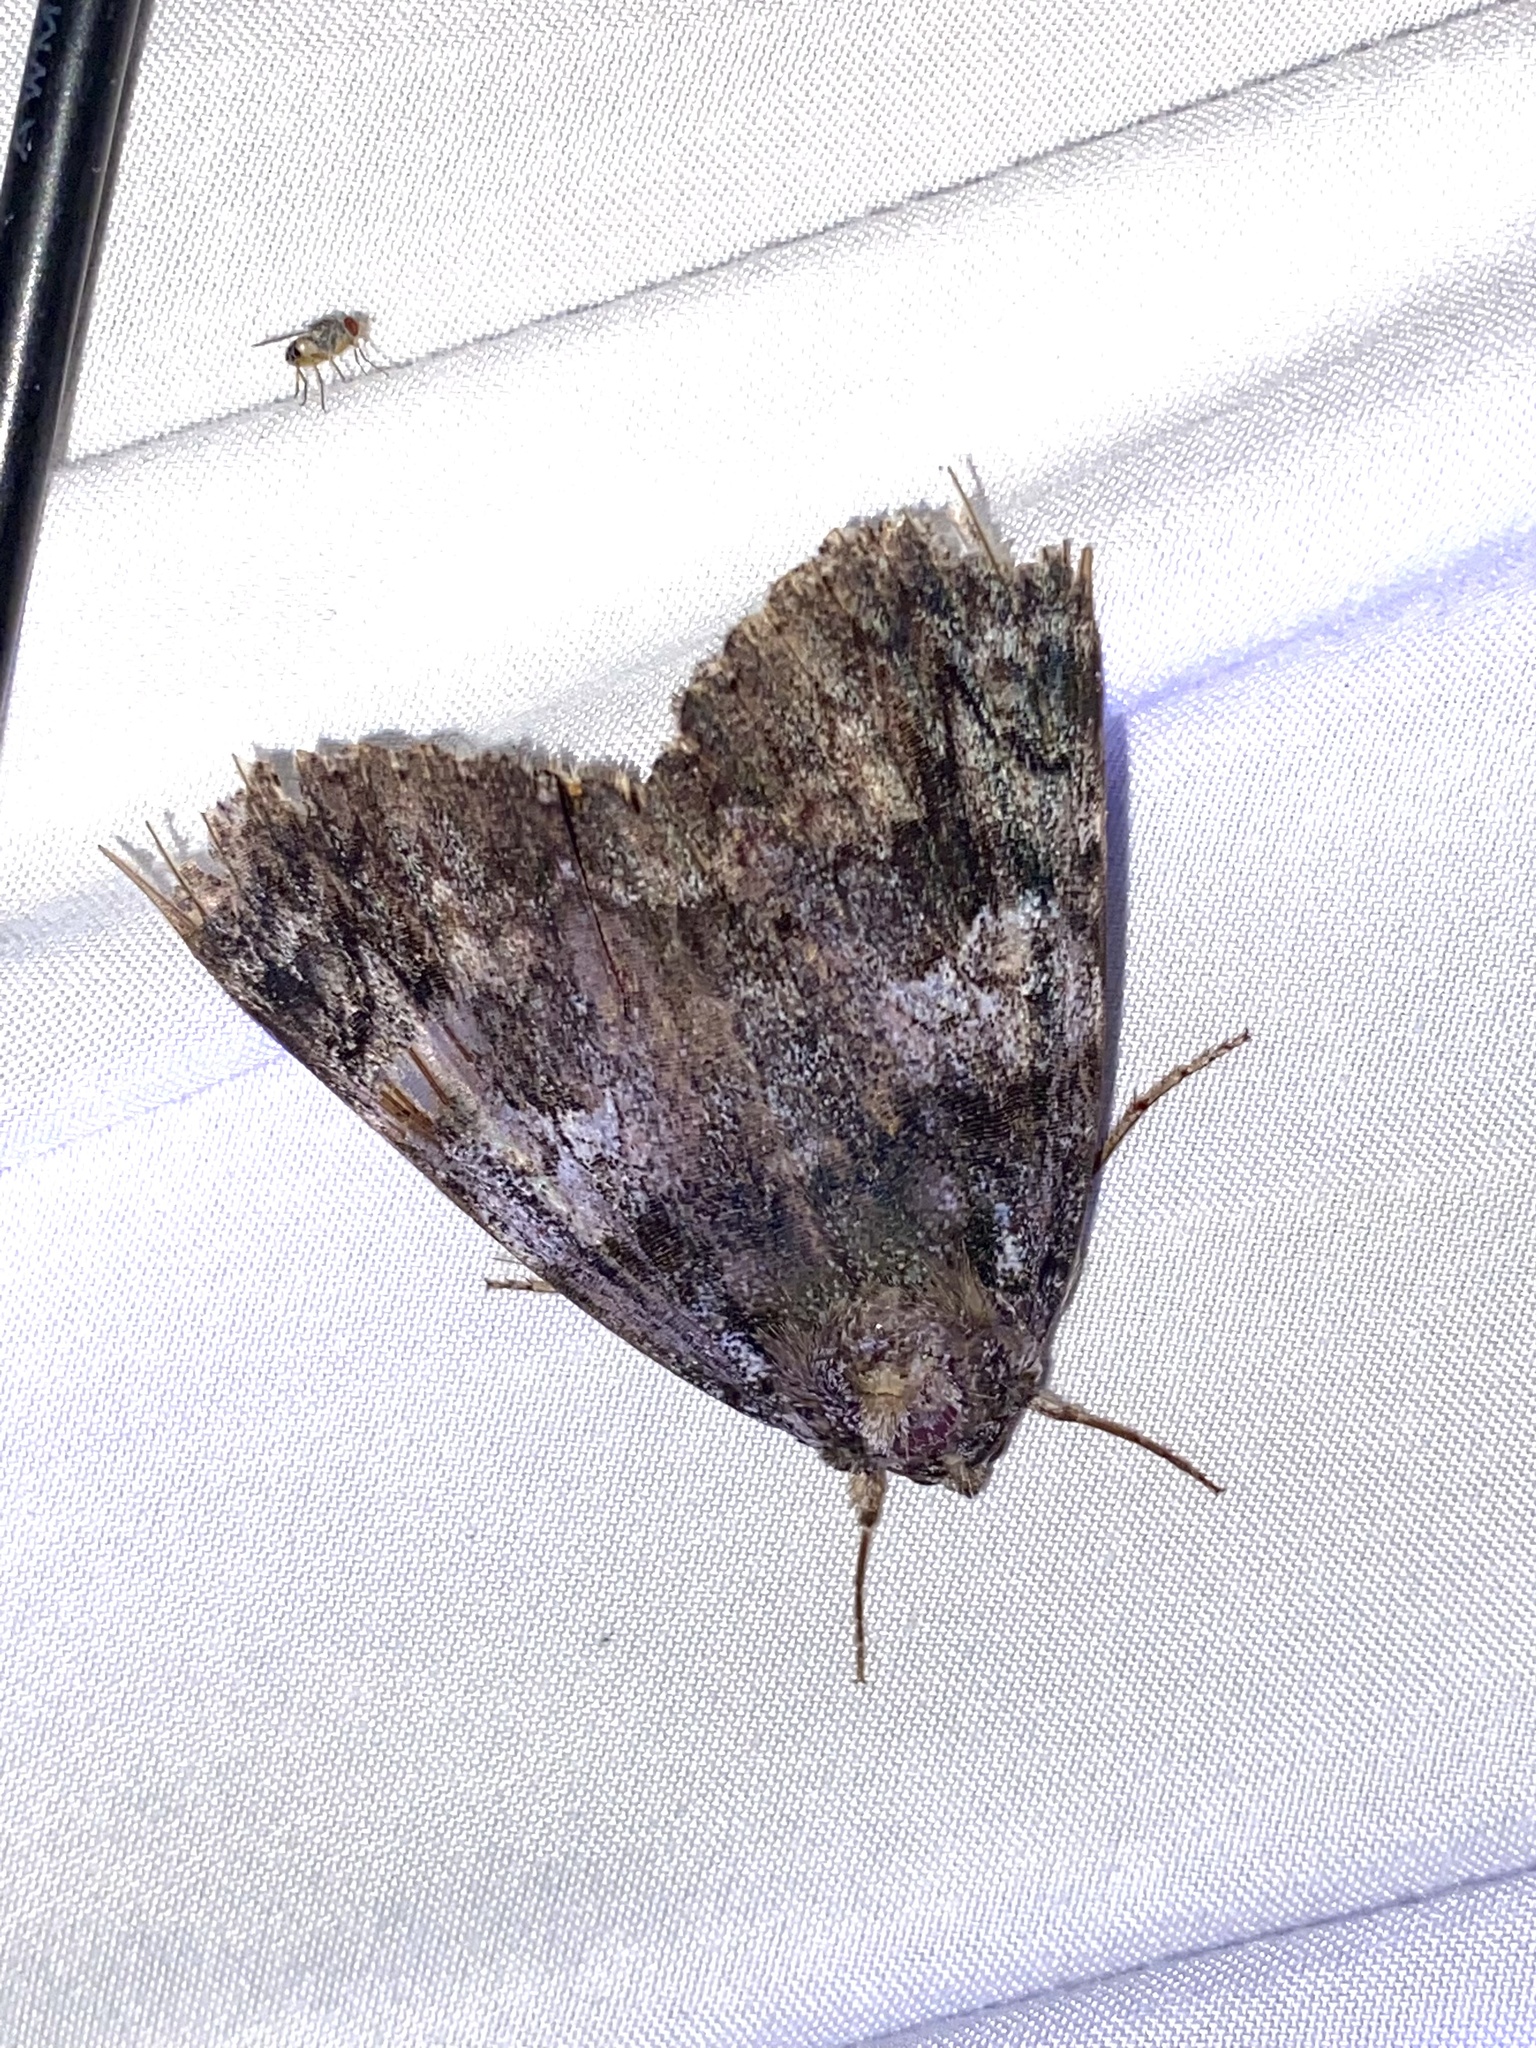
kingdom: Animalia
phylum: Arthropoda
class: Insecta
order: Lepidoptera
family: Erebidae
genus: Catocala
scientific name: Catocala ilia
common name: Ilia underwing
